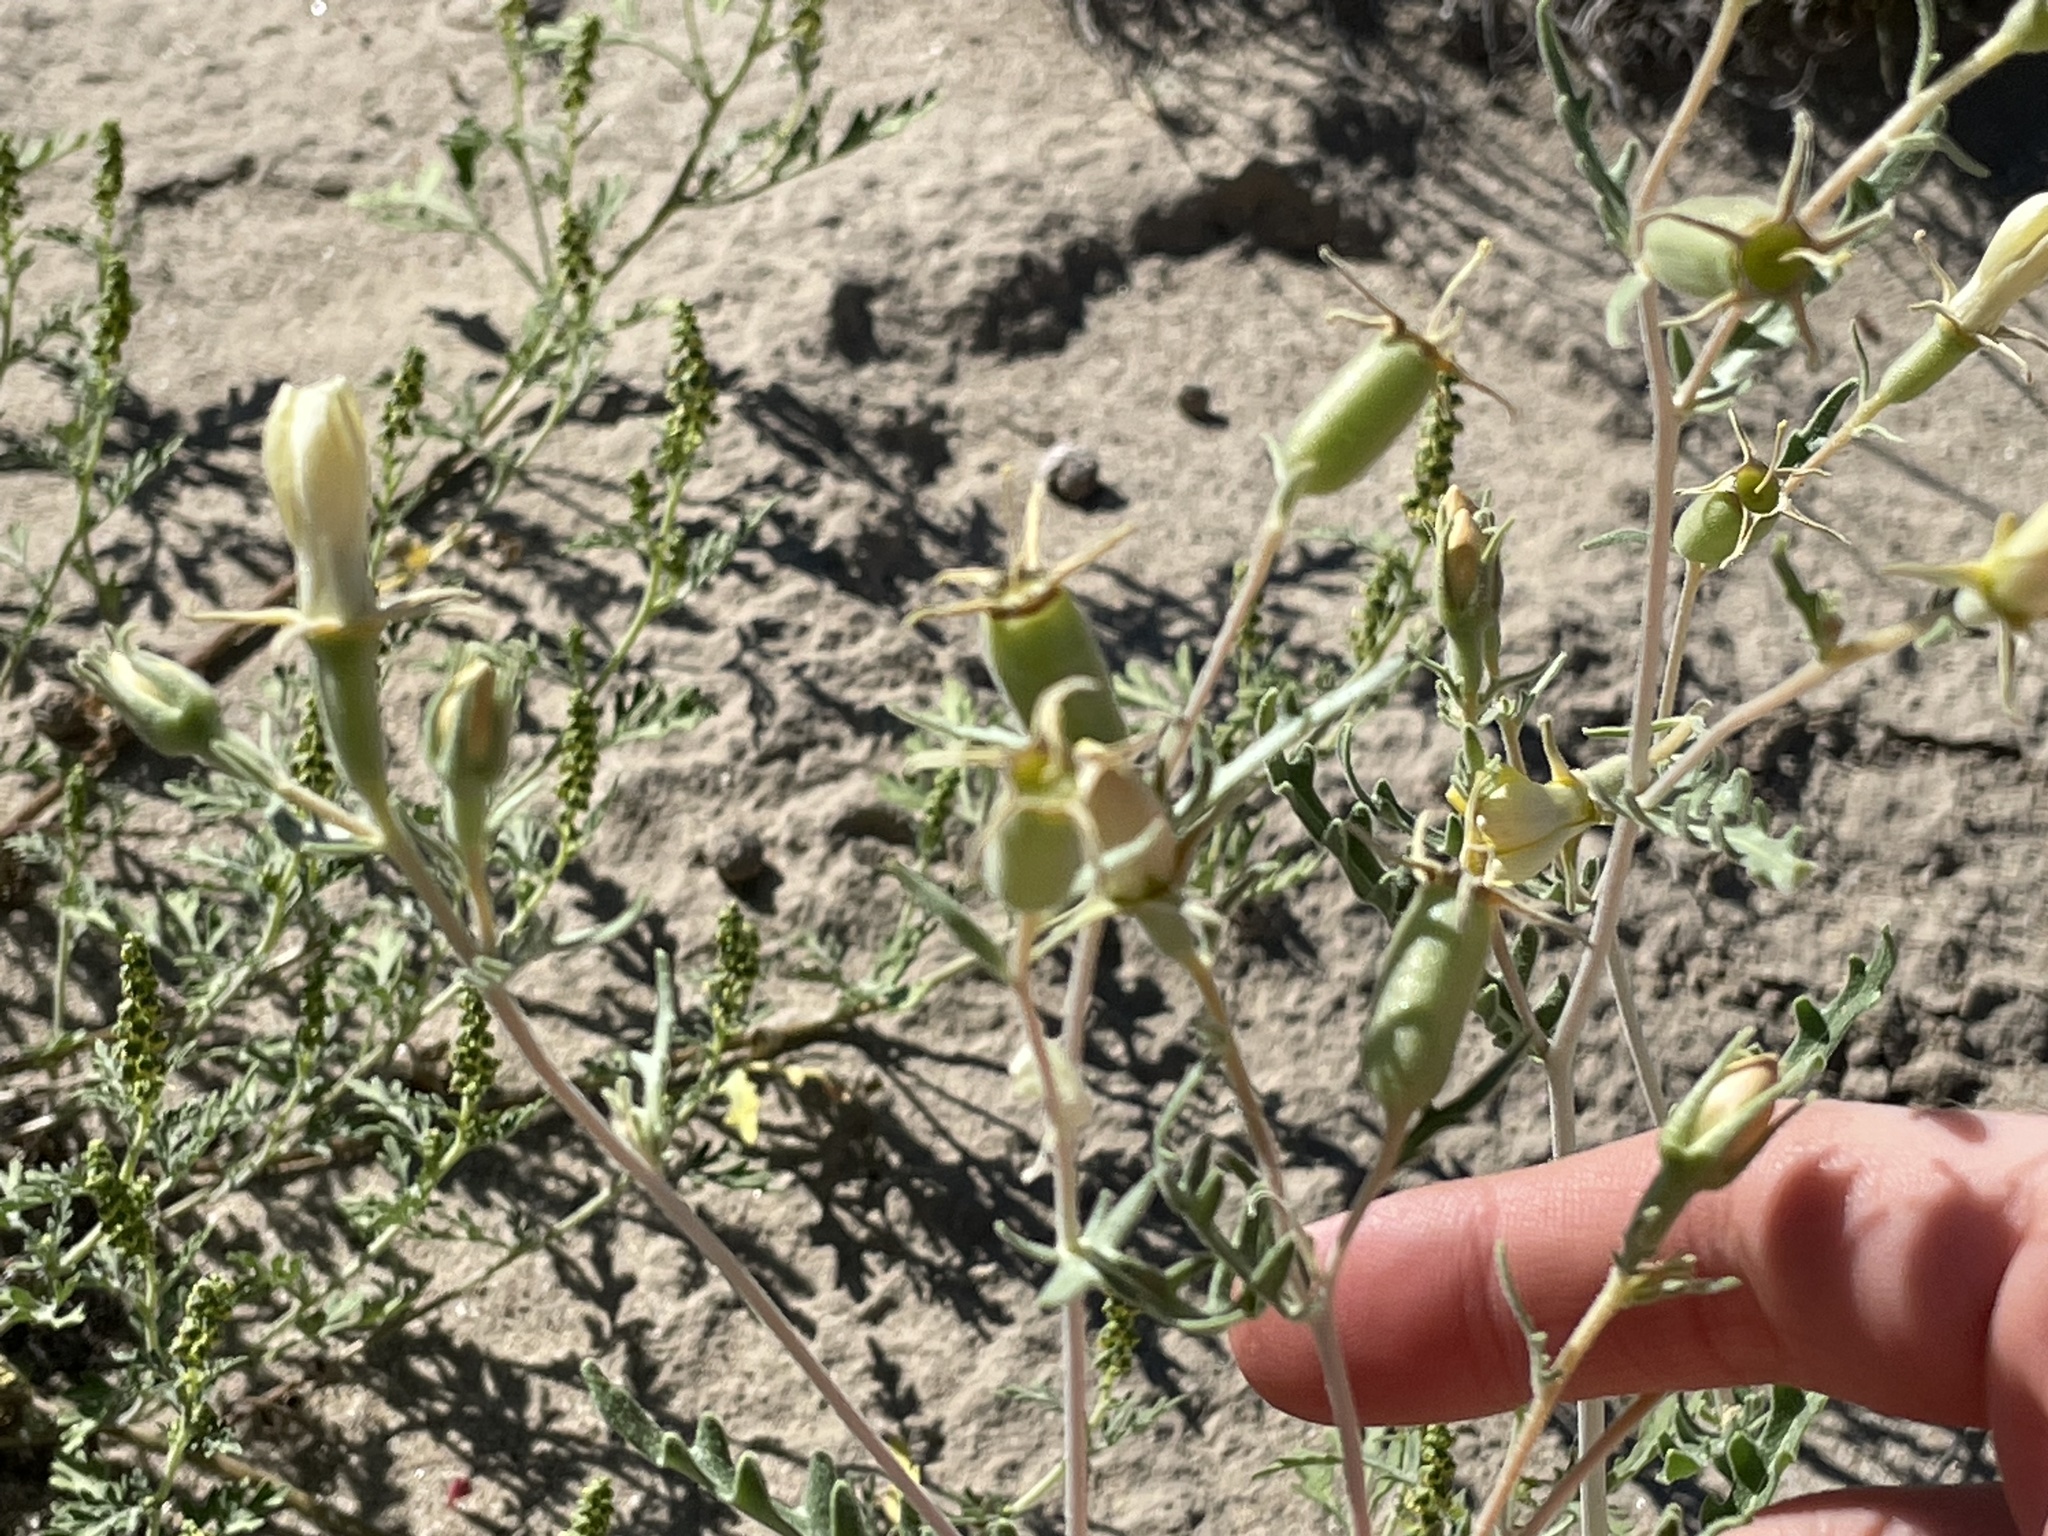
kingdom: Plantae
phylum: Tracheophyta
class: Magnoliopsida
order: Cornales
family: Loasaceae
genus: Mentzelia
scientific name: Mentzelia multiflora
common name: Adonis blazingstar
